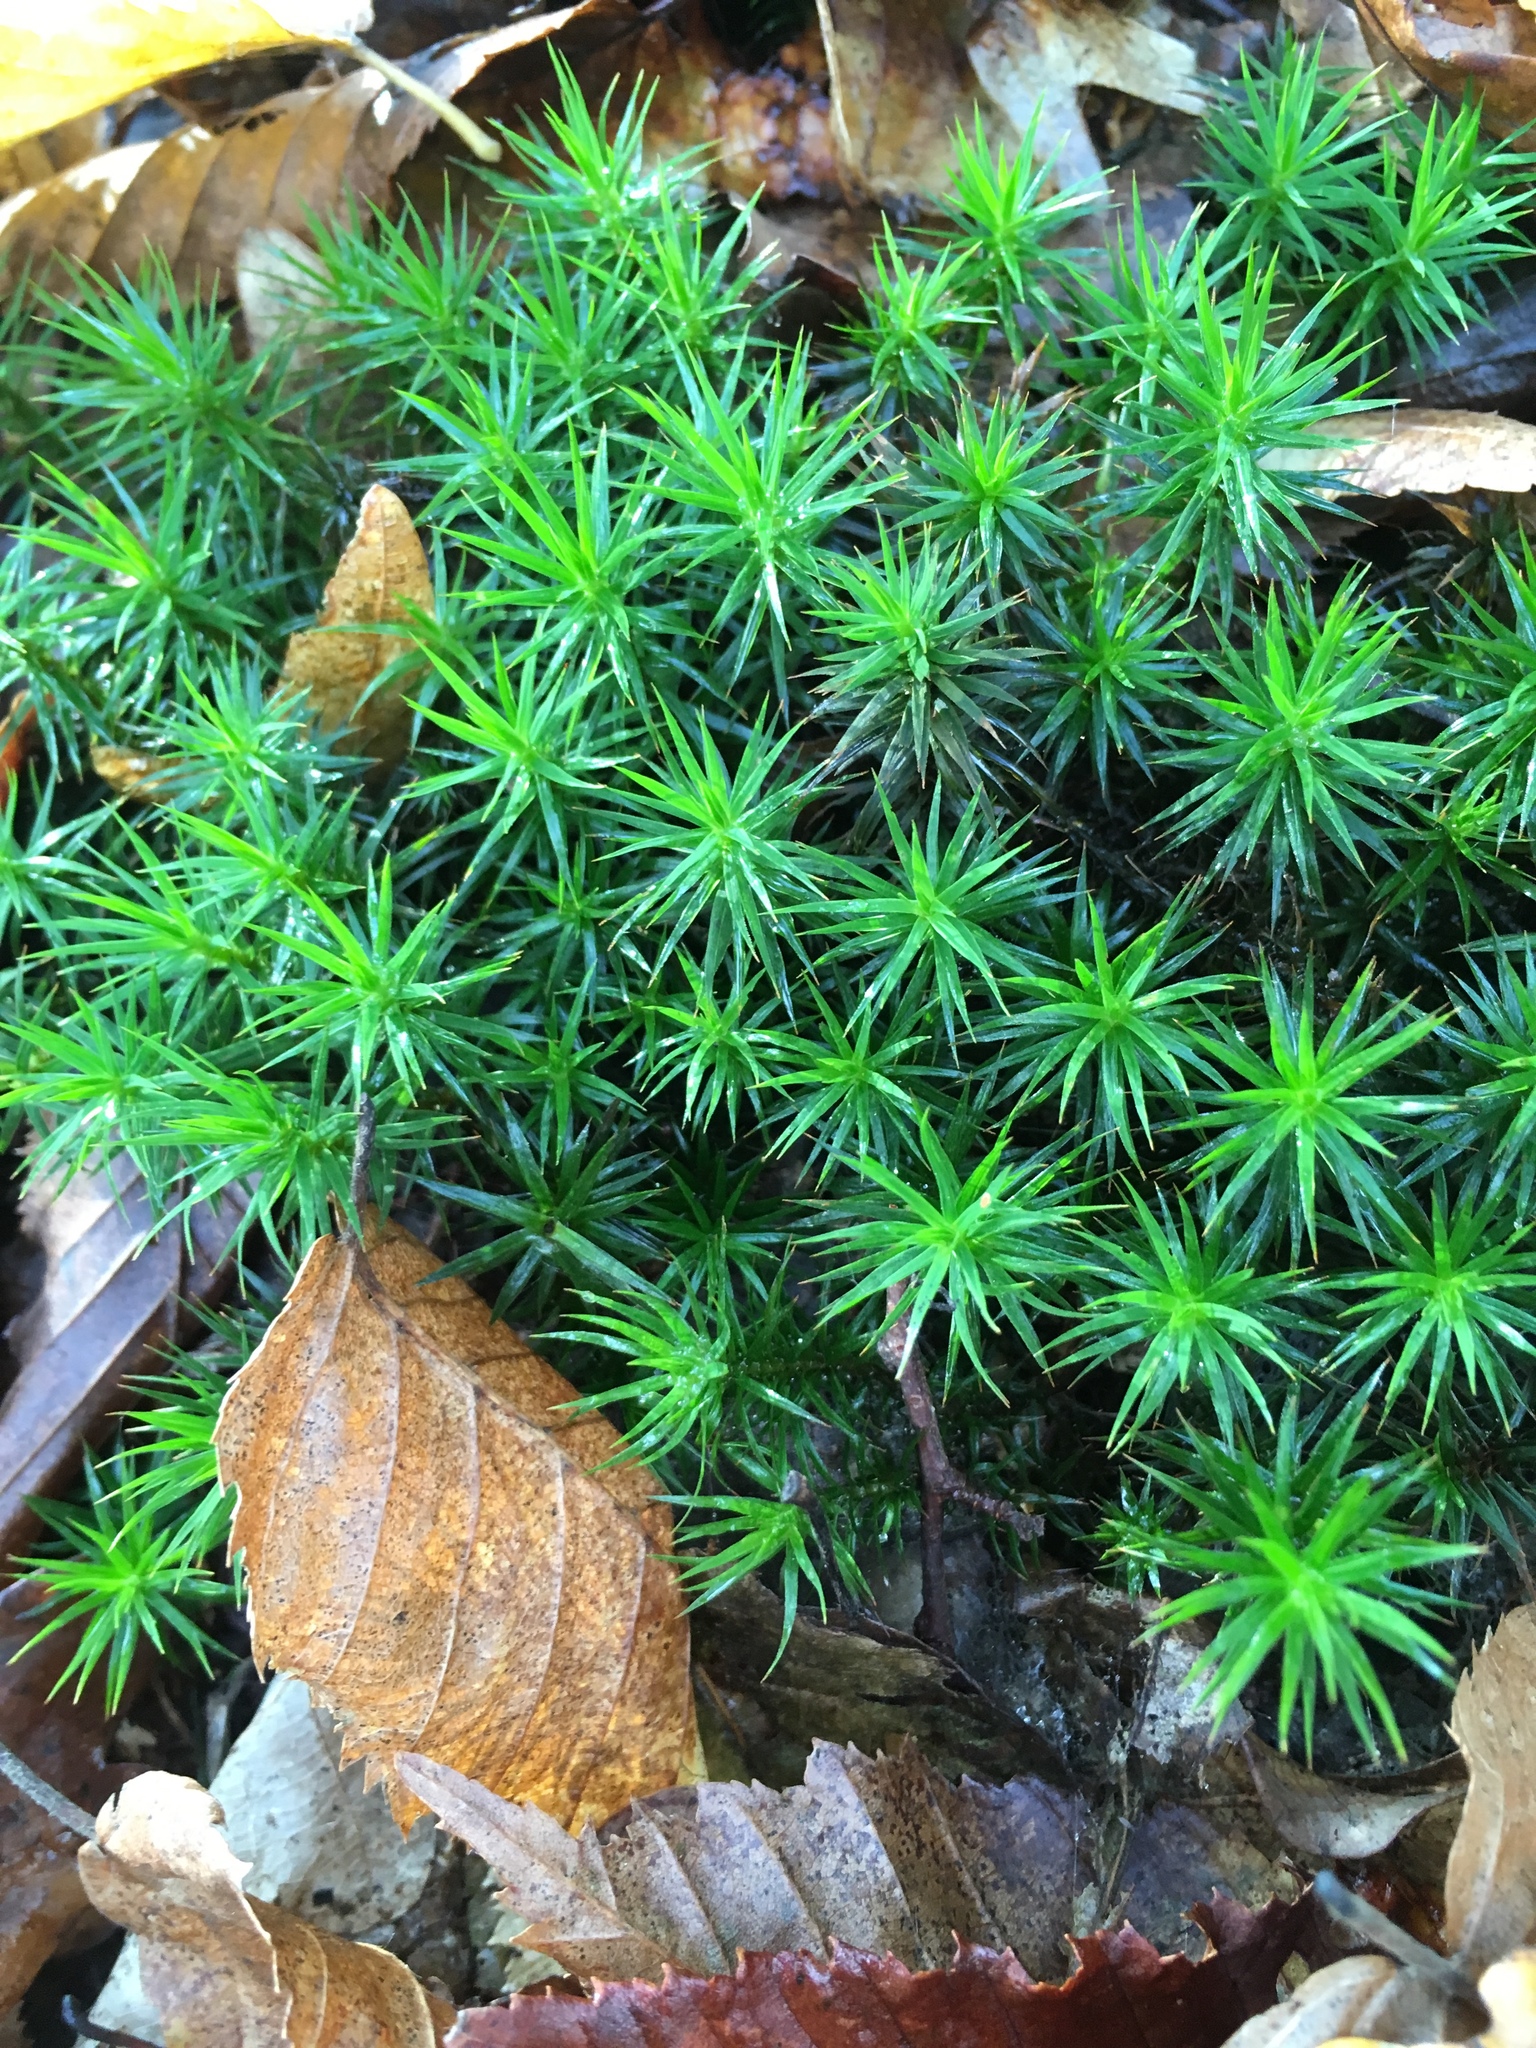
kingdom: Plantae
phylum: Bryophyta
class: Polytrichopsida
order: Polytrichales
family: Polytrichaceae
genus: Polytrichum
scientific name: Polytrichum formosum
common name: Bank haircap moss
